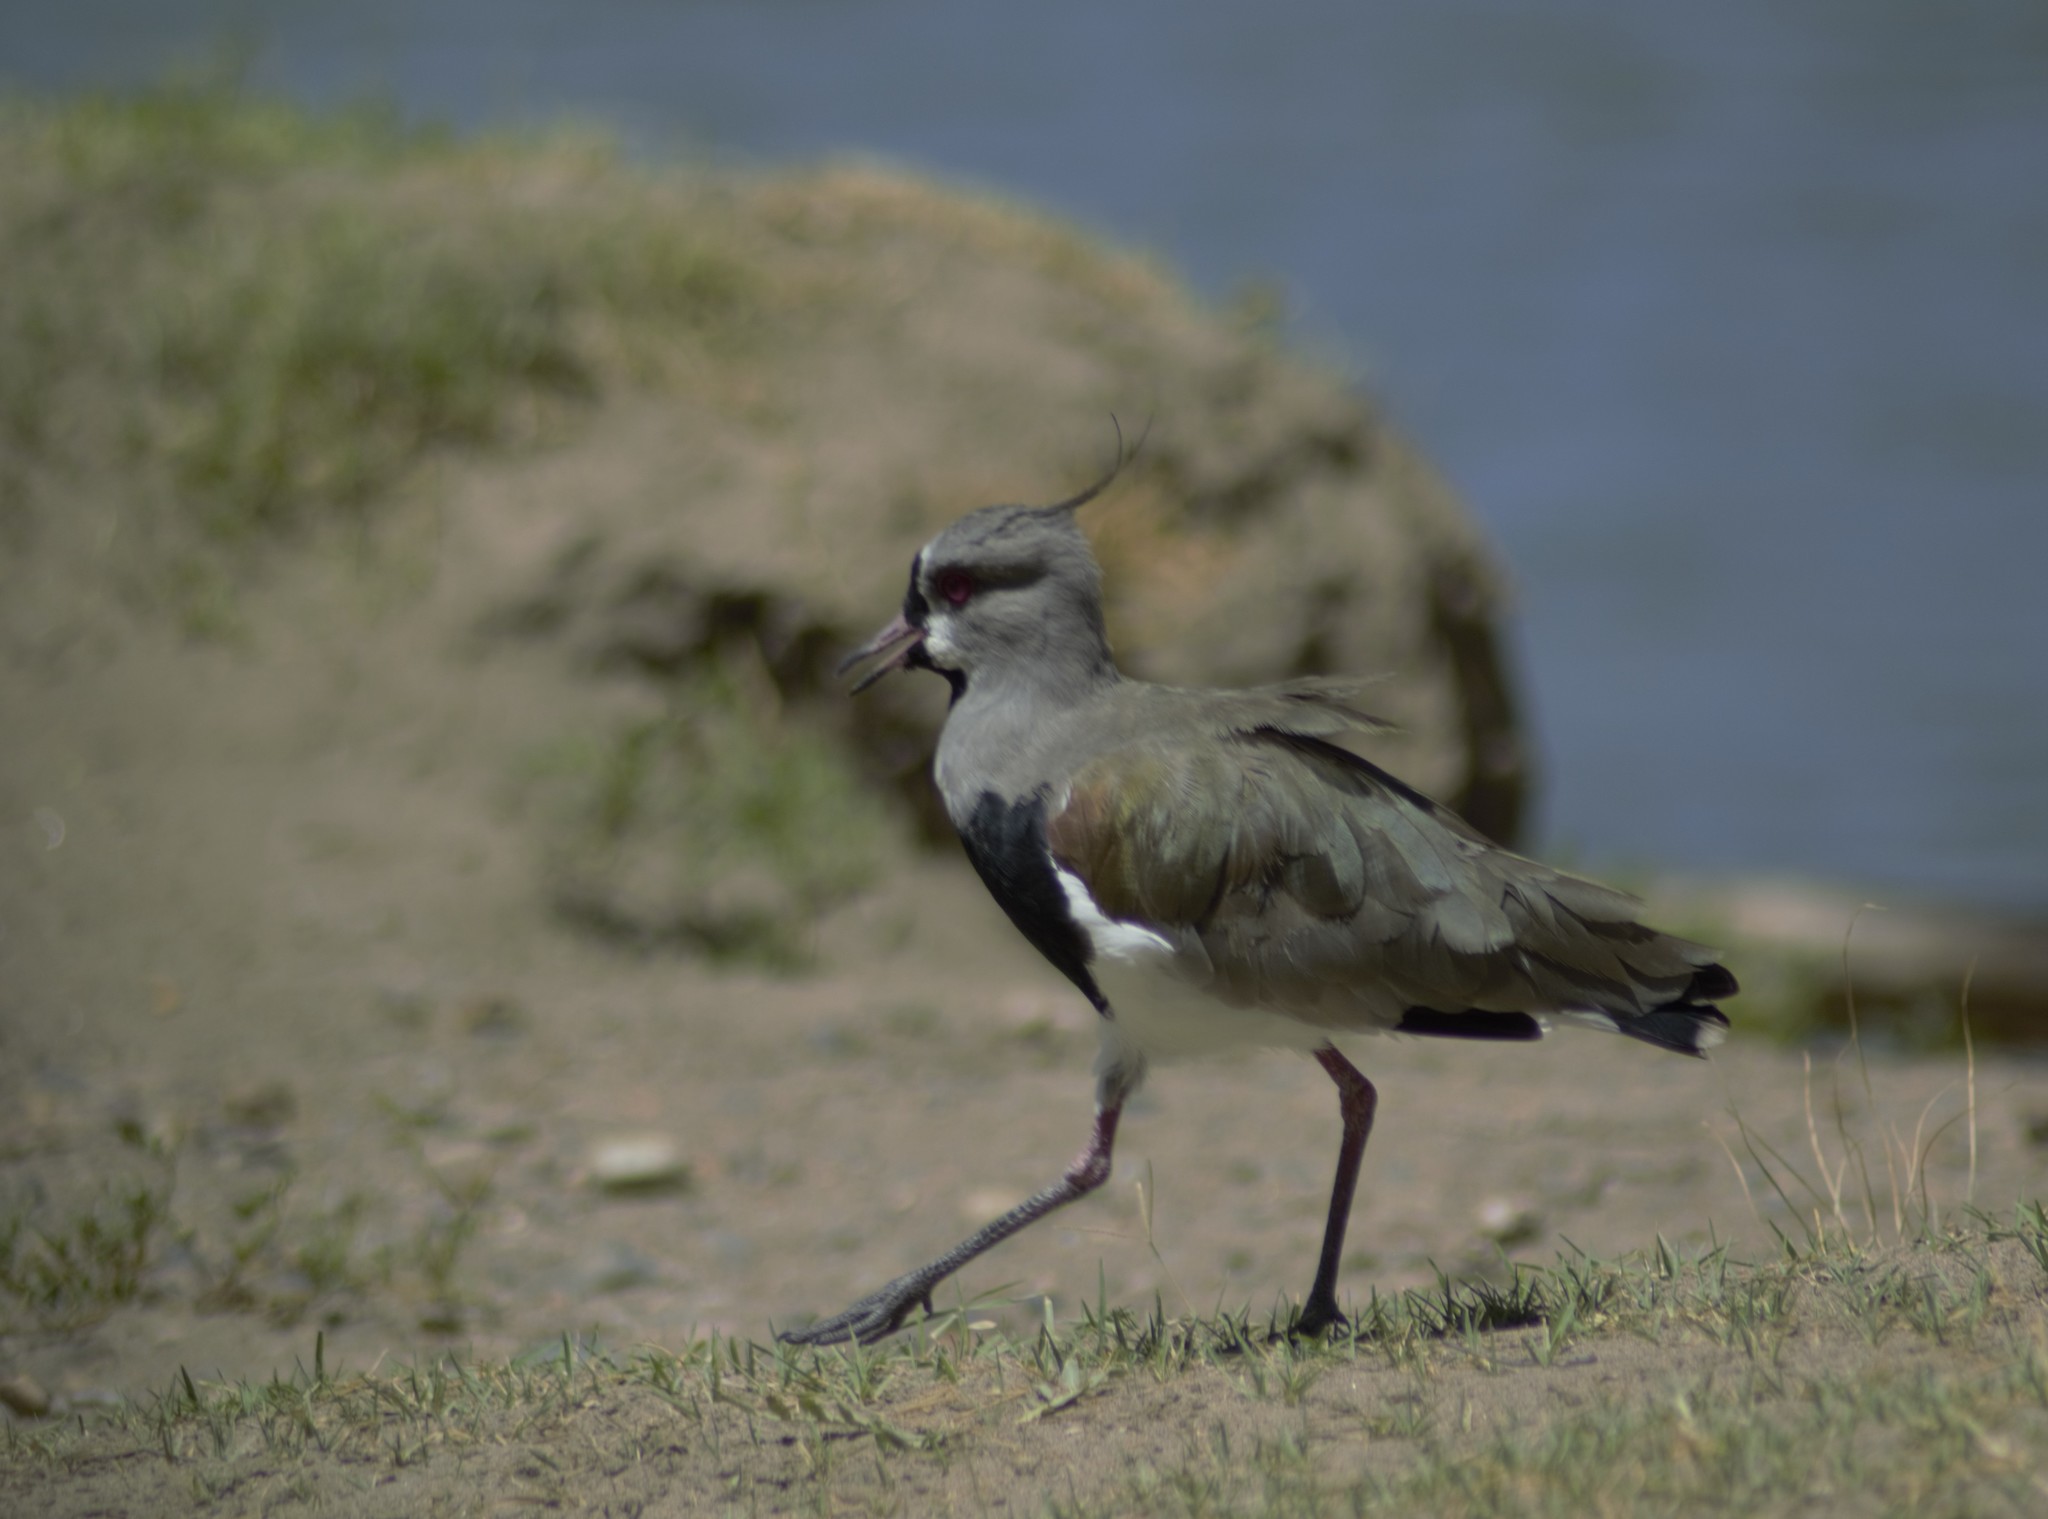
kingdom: Animalia
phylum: Chordata
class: Aves
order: Charadriiformes
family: Charadriidae
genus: Vanellus
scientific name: Vanellus chilensis
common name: Southern lapwing
